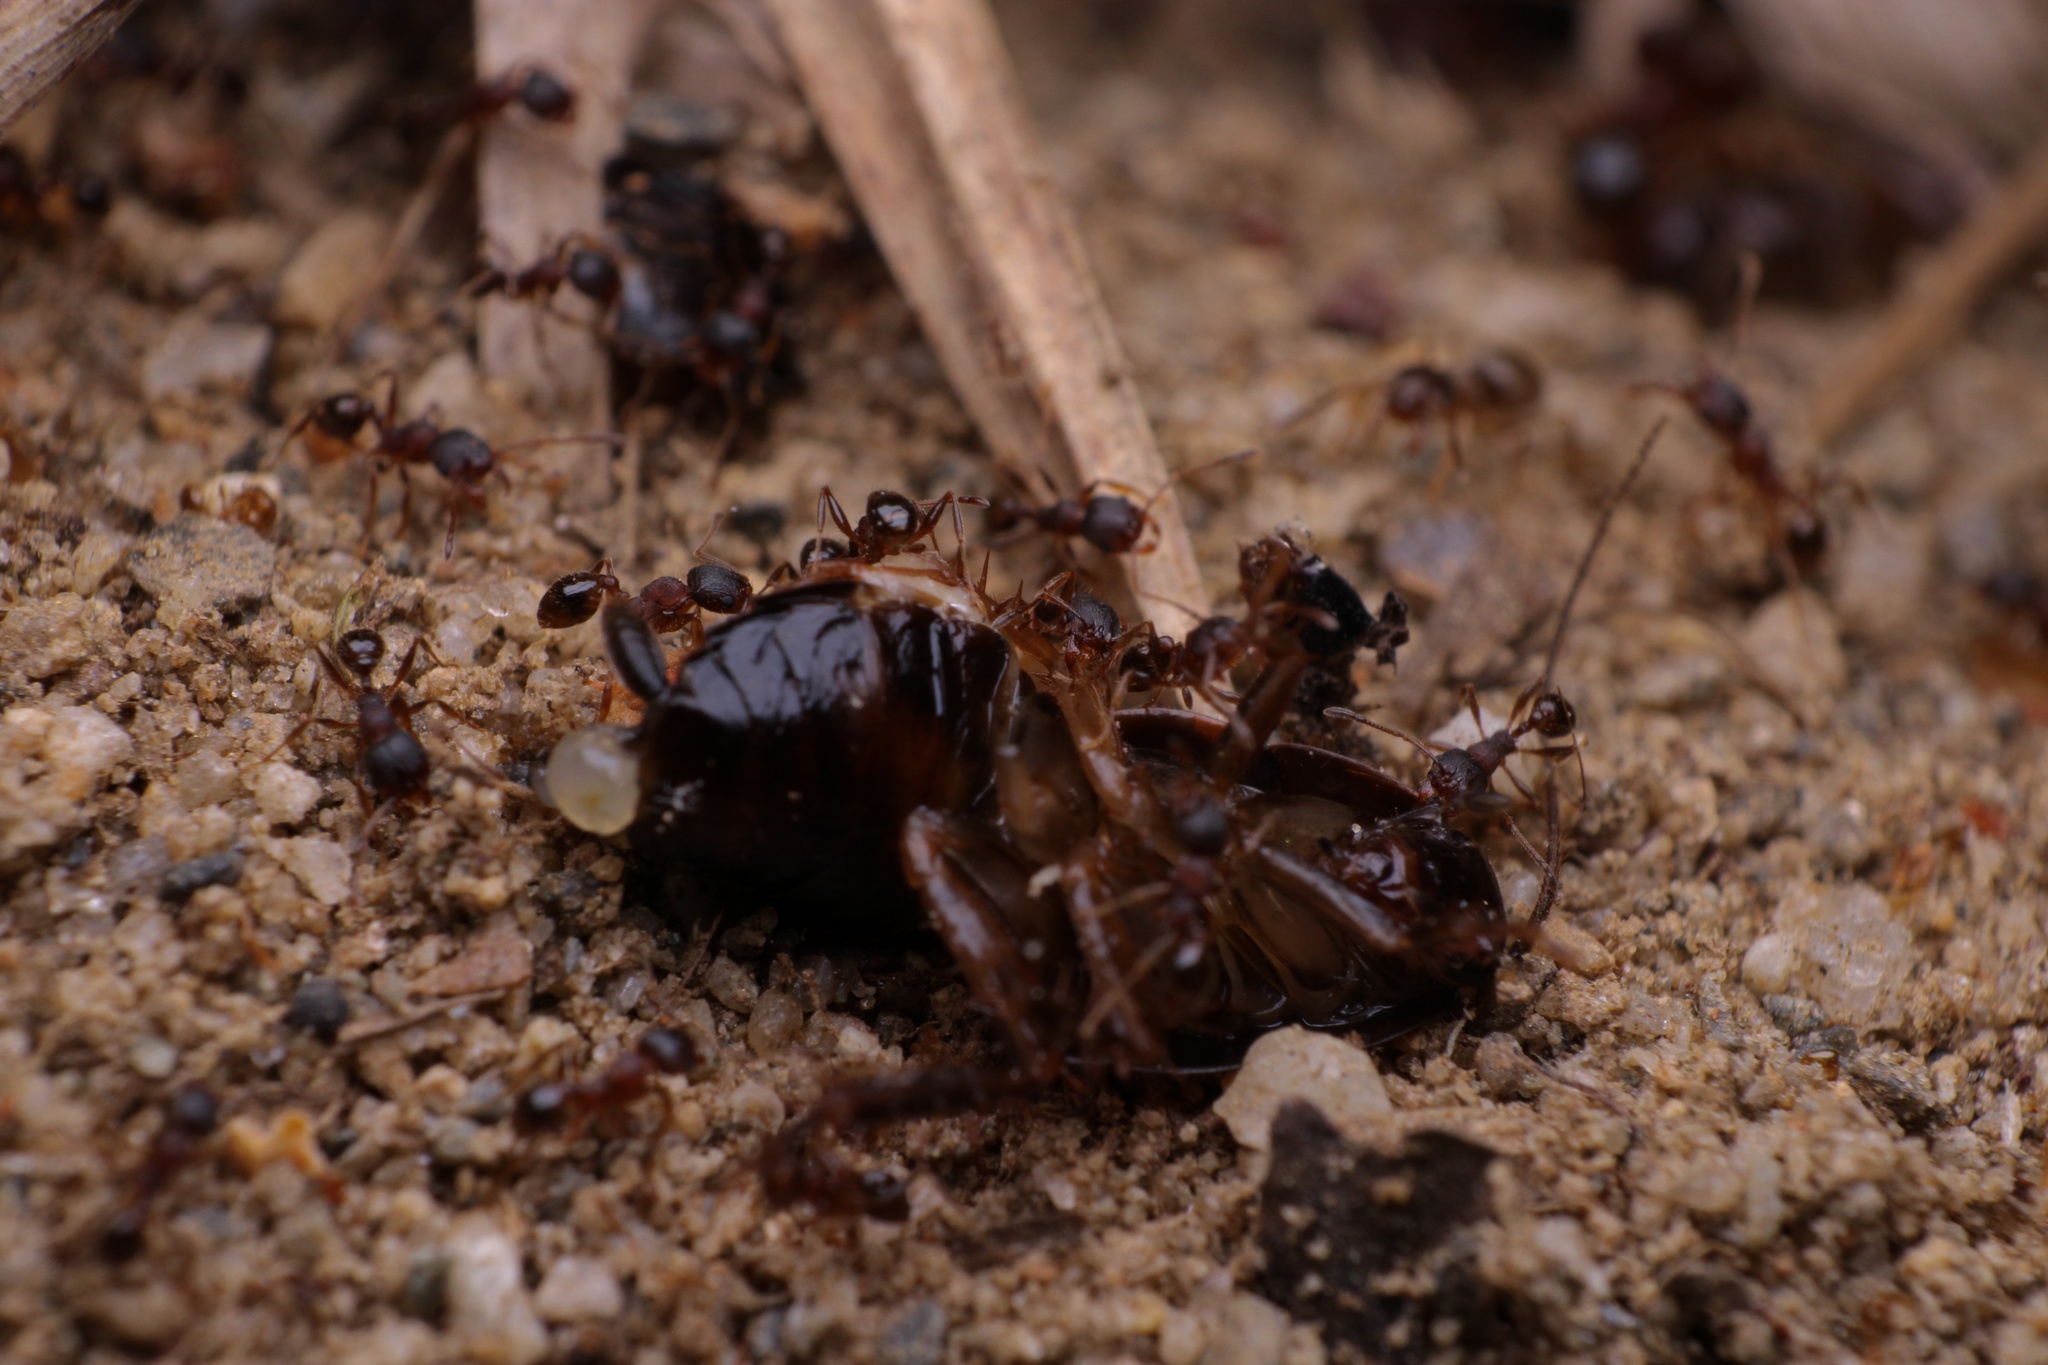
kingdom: Animalia
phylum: Arthropoda
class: Insecta
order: Hymenoptera
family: Formicidae
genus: Pheidole
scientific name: Pheidole pilifera
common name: Hairy big-headed ant
